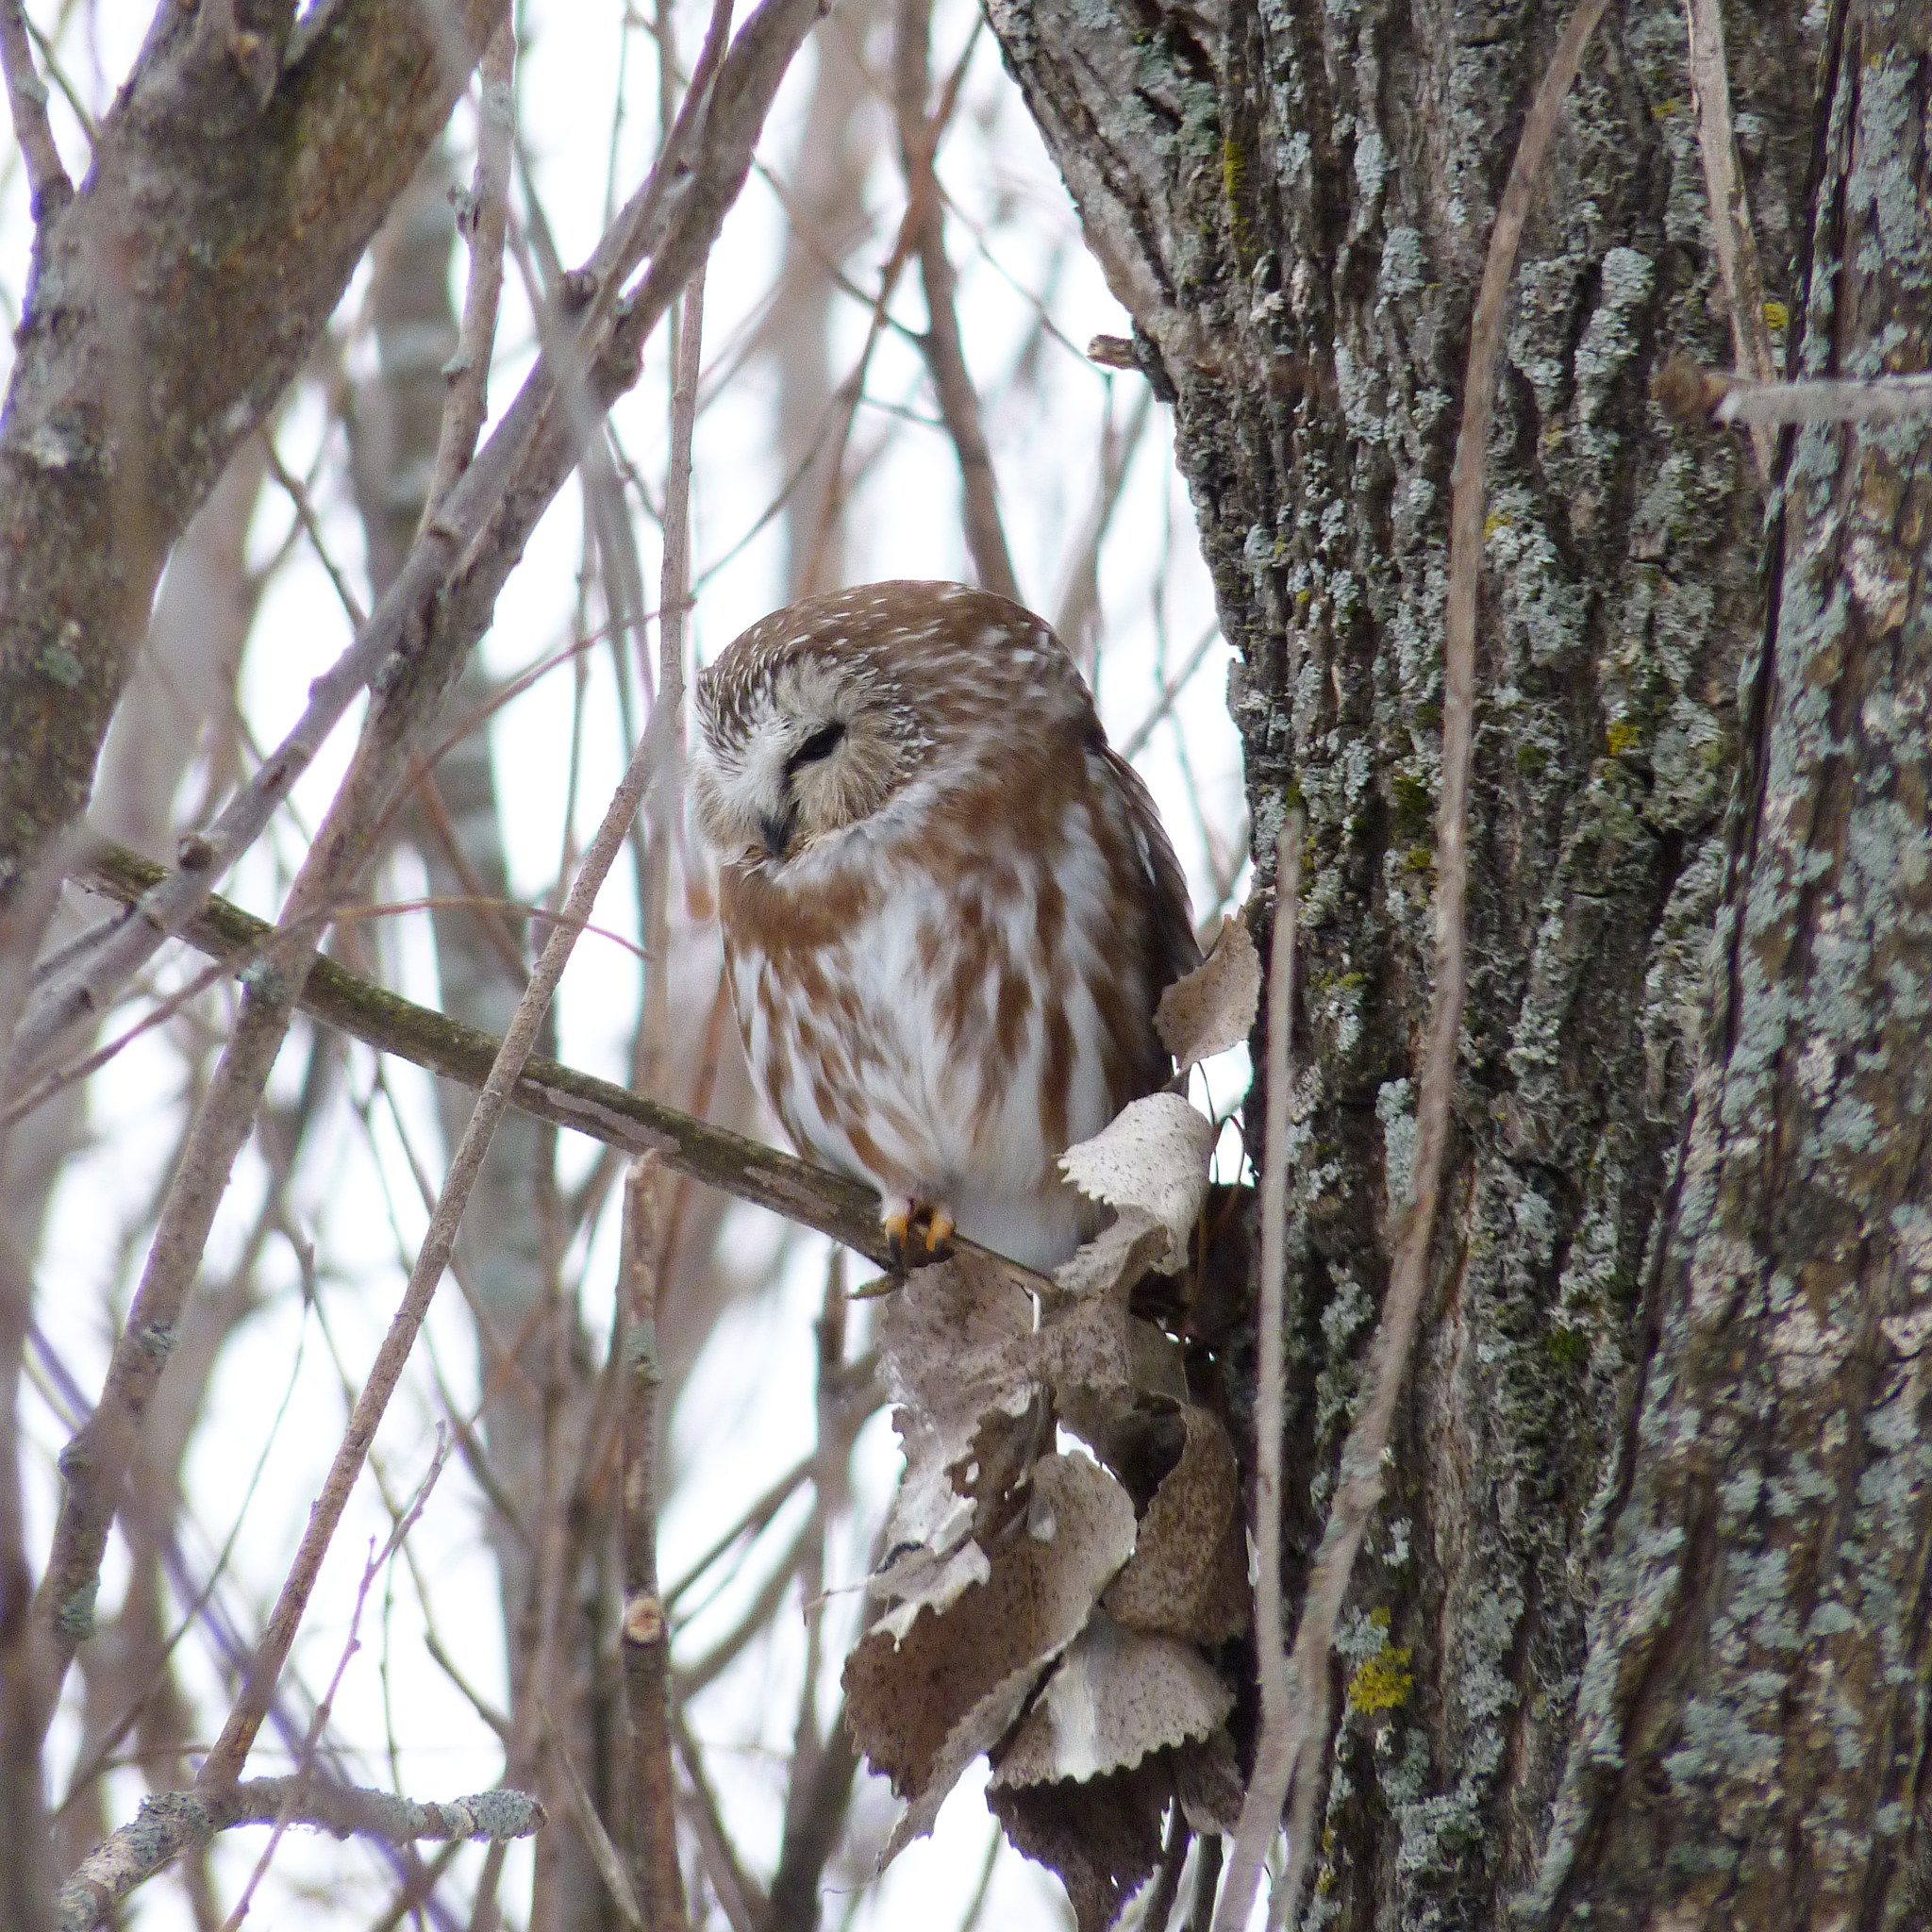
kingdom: Animalia
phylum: Chordata
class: Aves
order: Strigiformes
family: Strigidae
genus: Aegolius
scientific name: Aegolius acadicus
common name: Northern saw-whet owl
